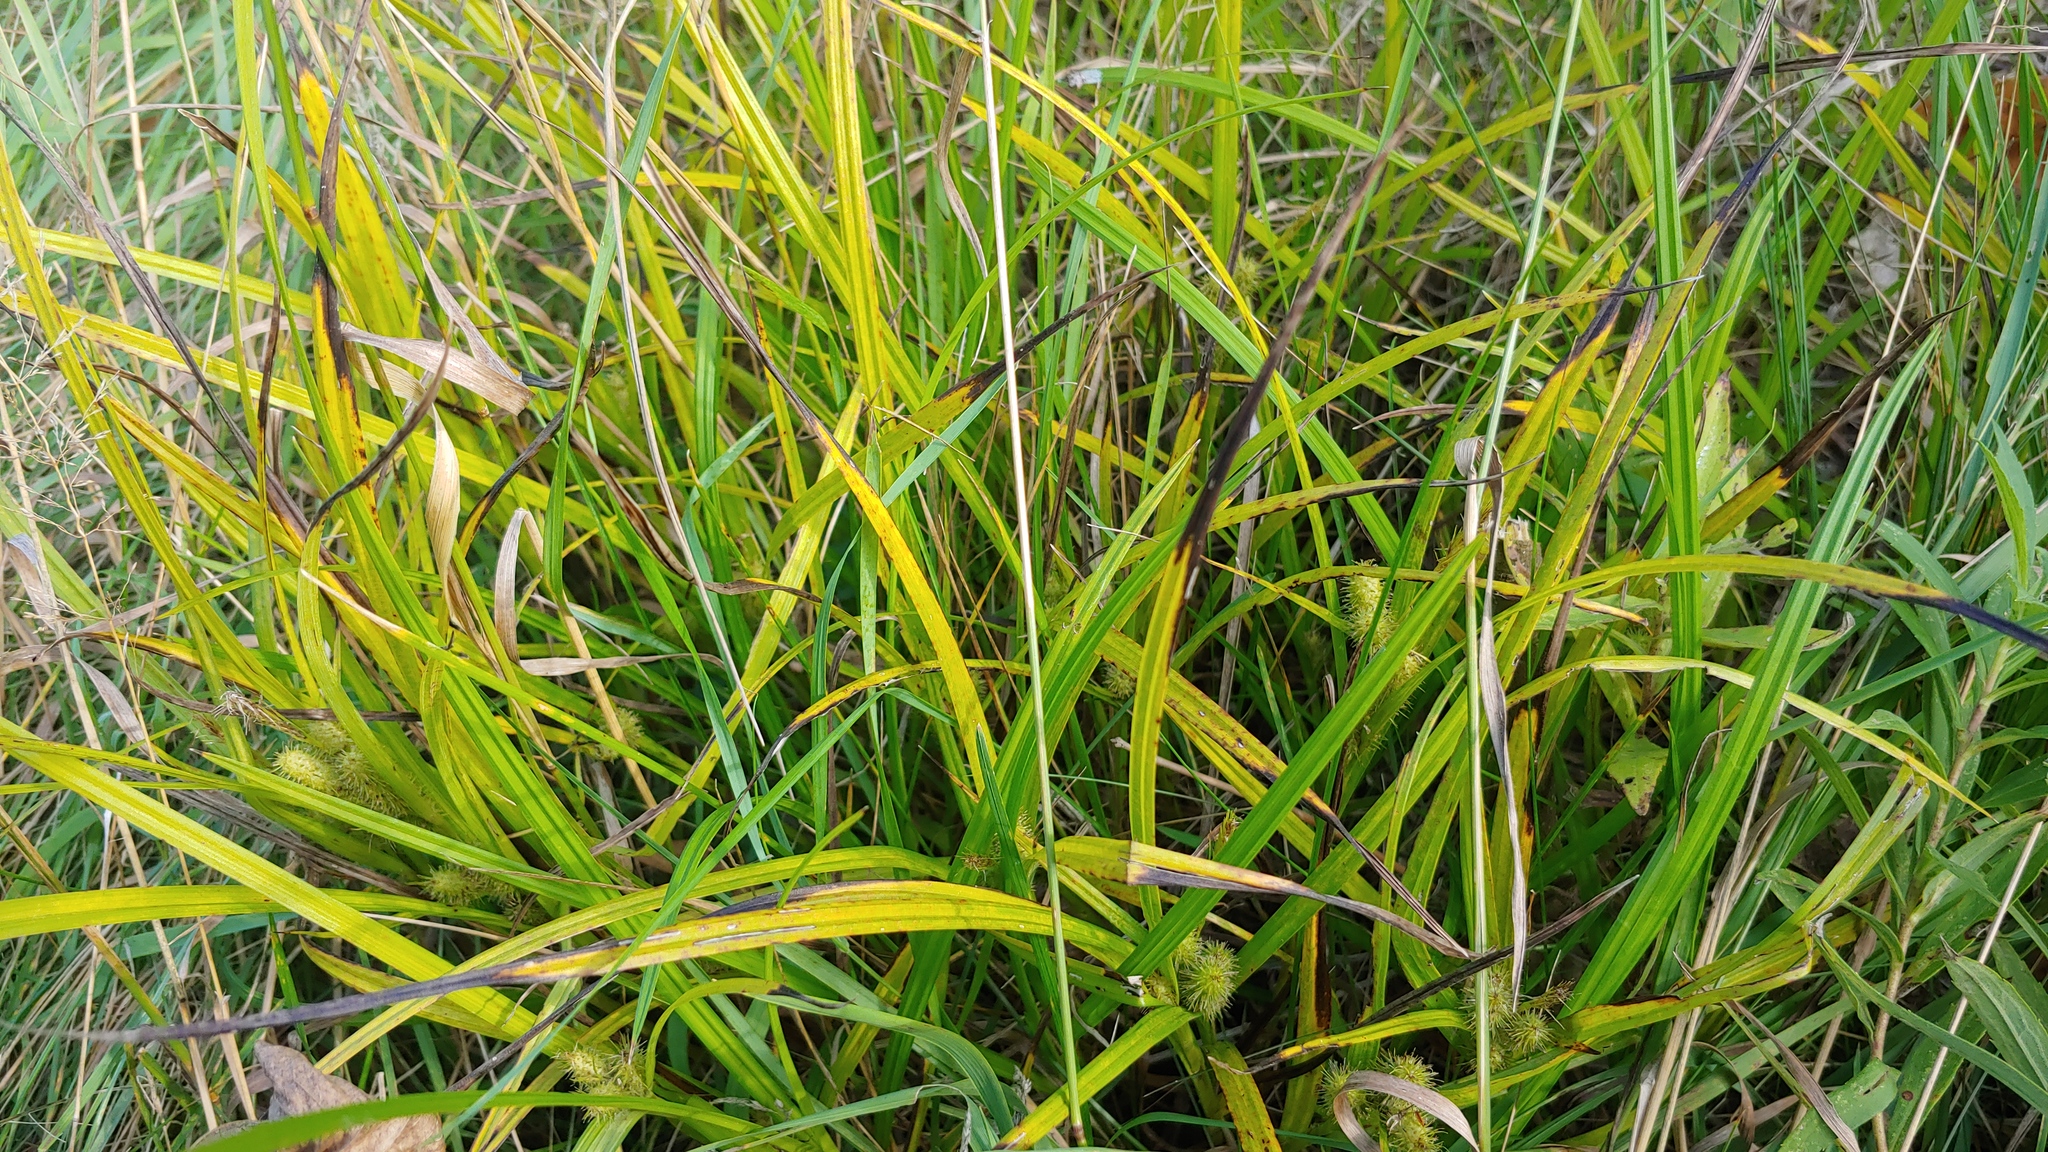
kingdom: Plantae
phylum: Tracheophyta
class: Liliopsida
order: Poales
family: Cyperaceae
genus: Carex
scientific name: Carex frankii
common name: Frank's sedge
